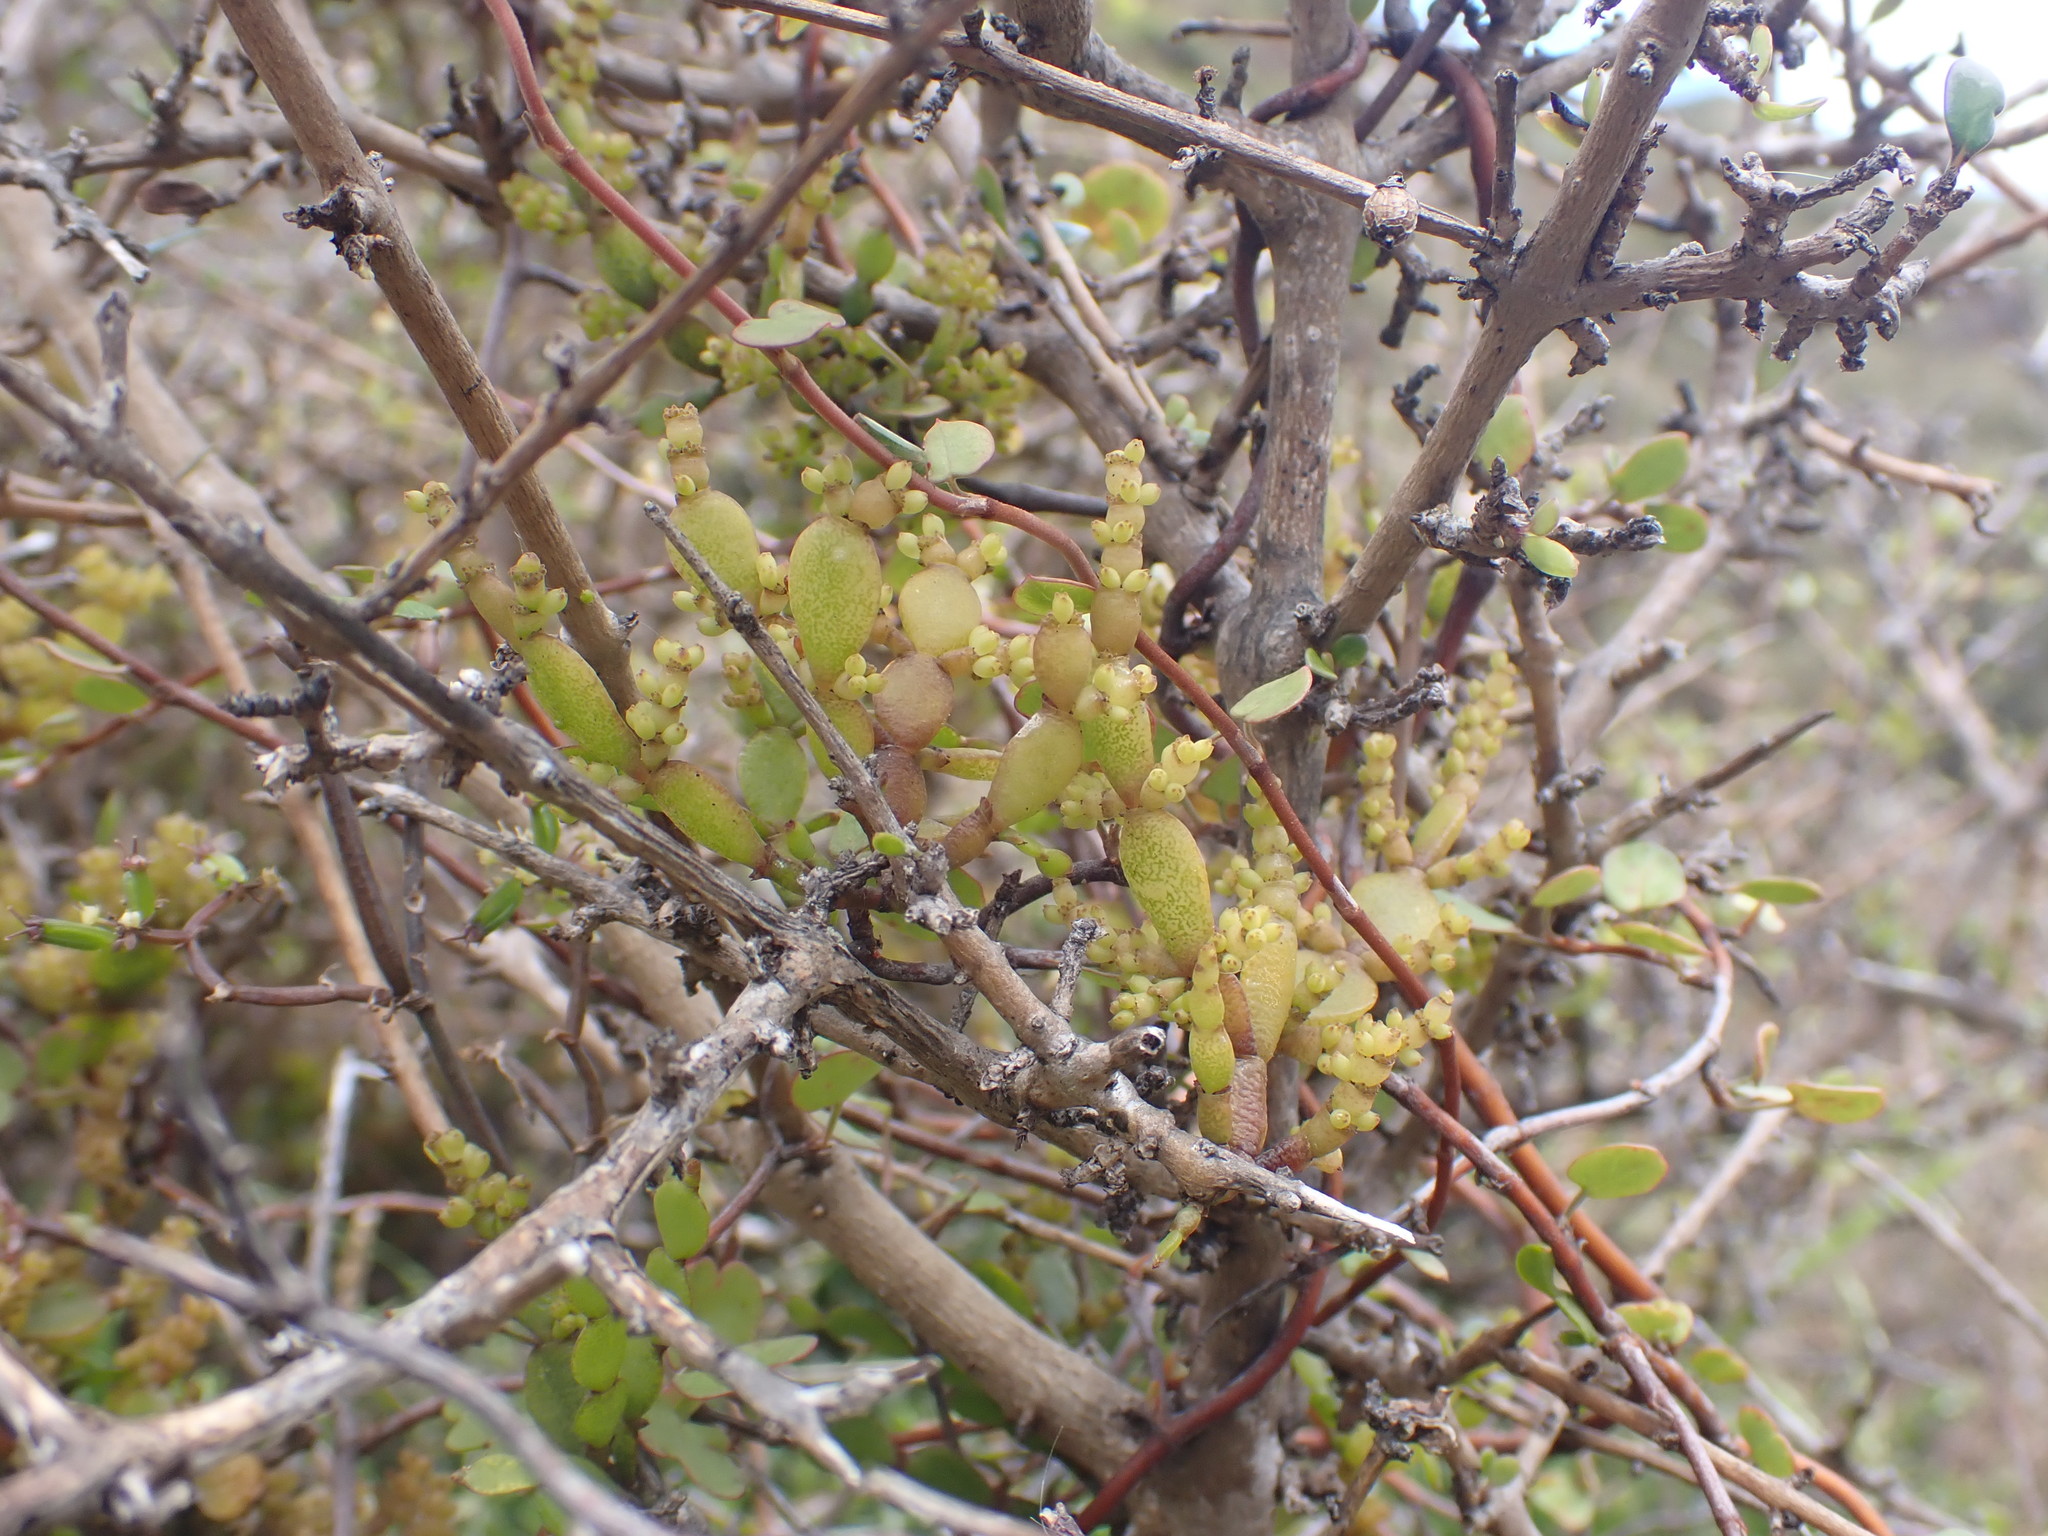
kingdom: Plantae
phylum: Tracheophyta
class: Magnoliopsida
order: Santalales
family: Viscaceae
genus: Korthalsella
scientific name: Korthalsella lindsayi
